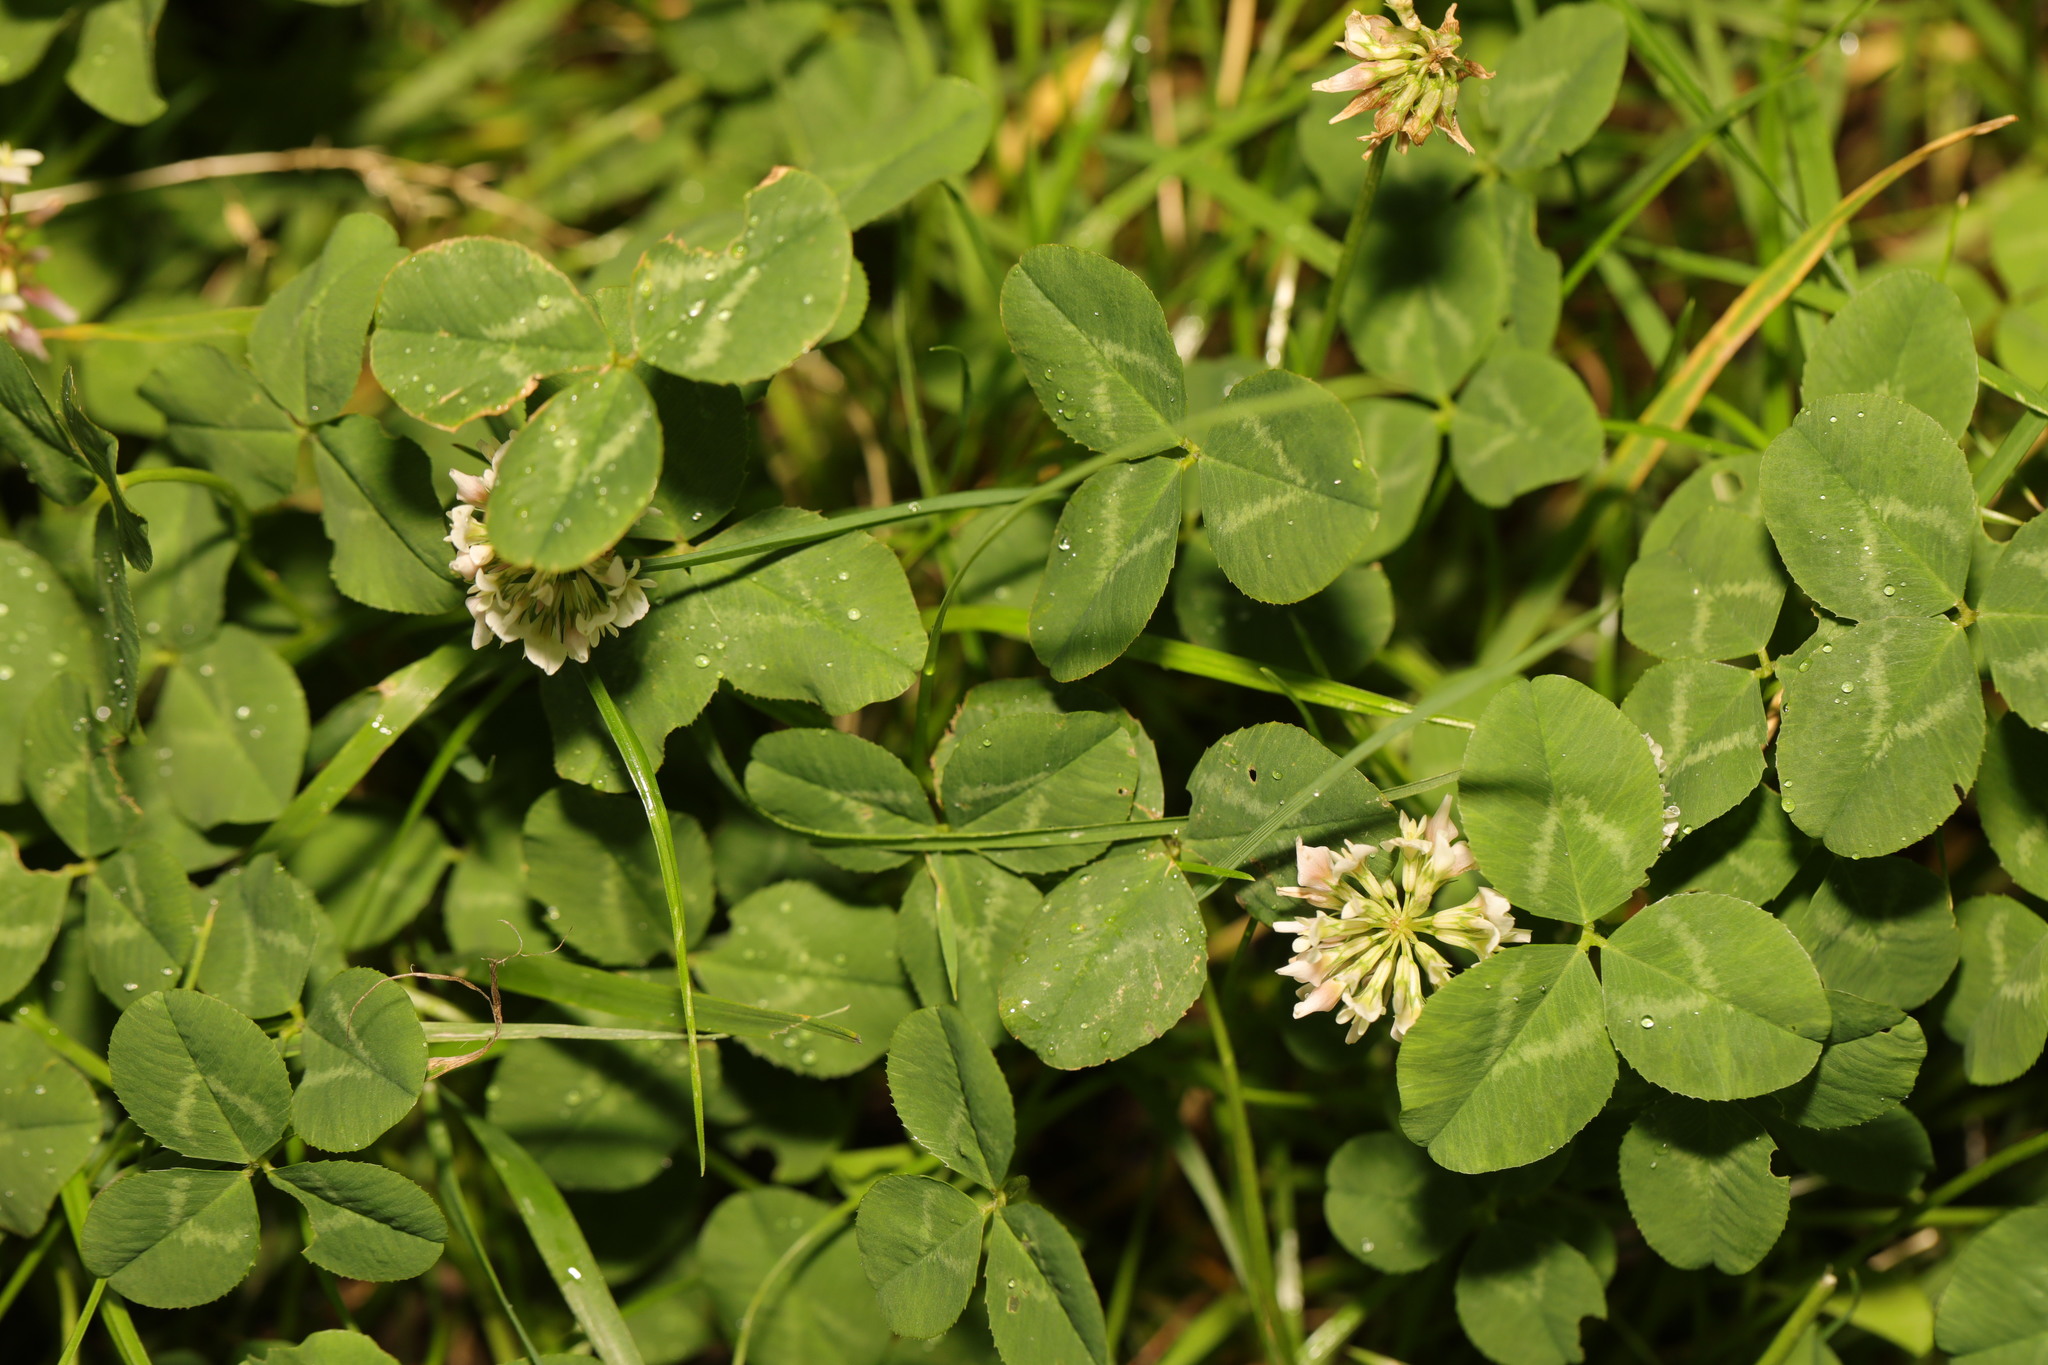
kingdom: Plantae
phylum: Tracheophyta
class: Magnoliopsida
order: Fabales
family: Fabaceae
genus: Trifolium
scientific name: Trifolium repens
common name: White clover
